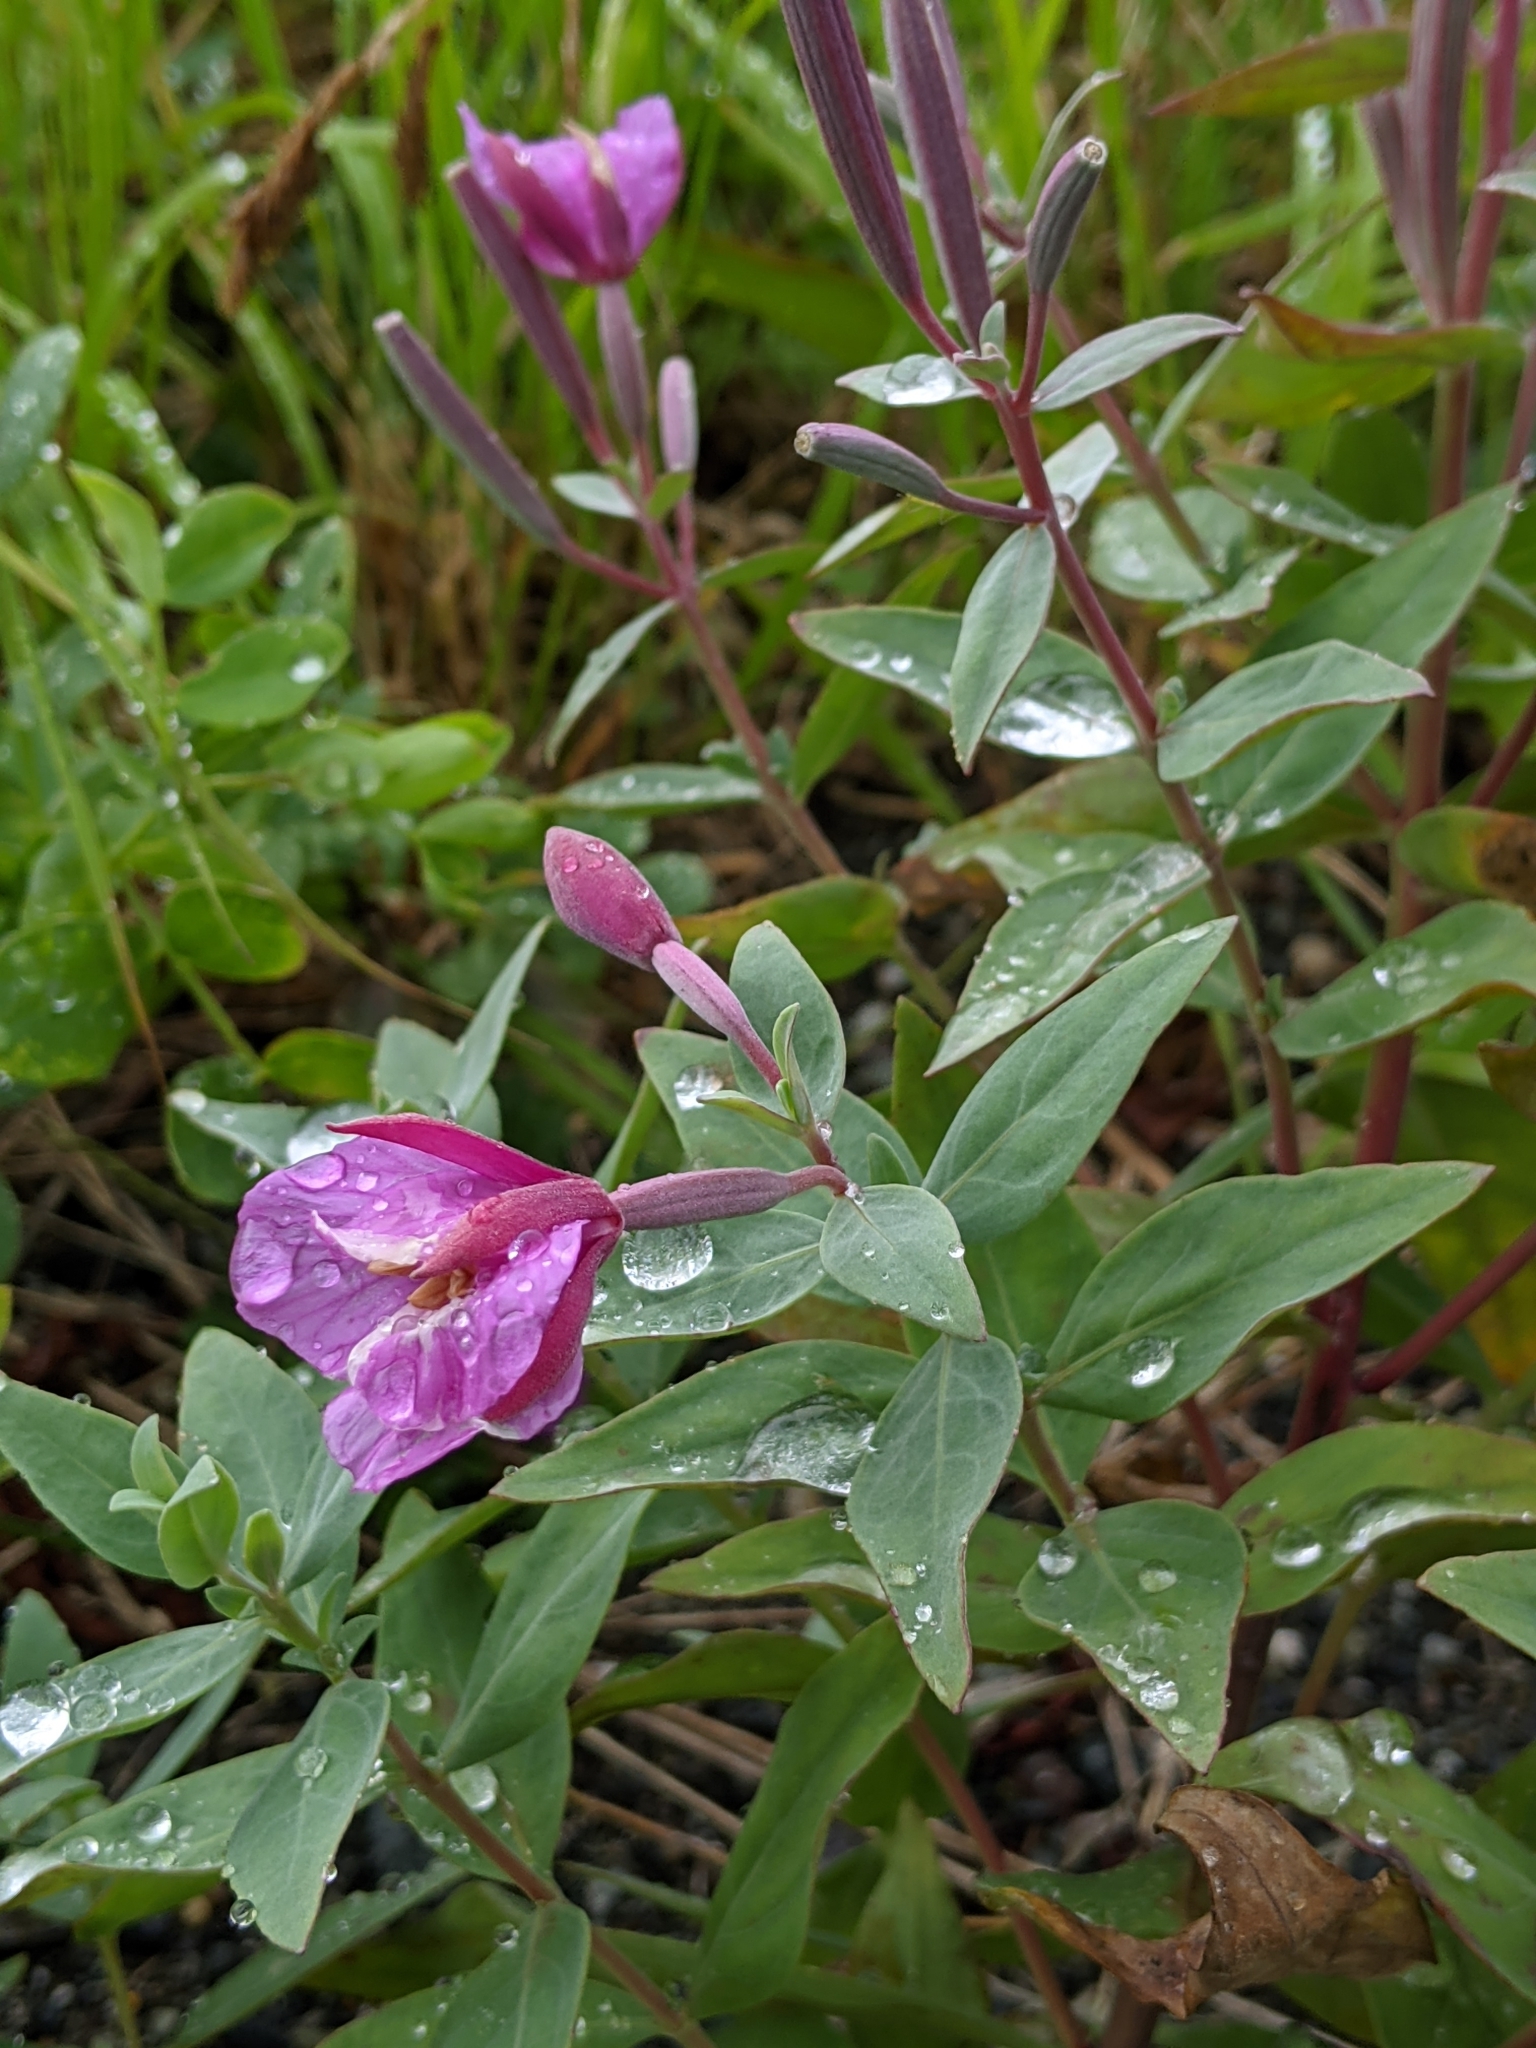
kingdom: Plantae
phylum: Tracheophyta
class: Magnoliopsida
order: Myrtales
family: Onagraceae
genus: Chamaenerion
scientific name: Chamaenerion latifolium
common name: Dwarf fireweed
